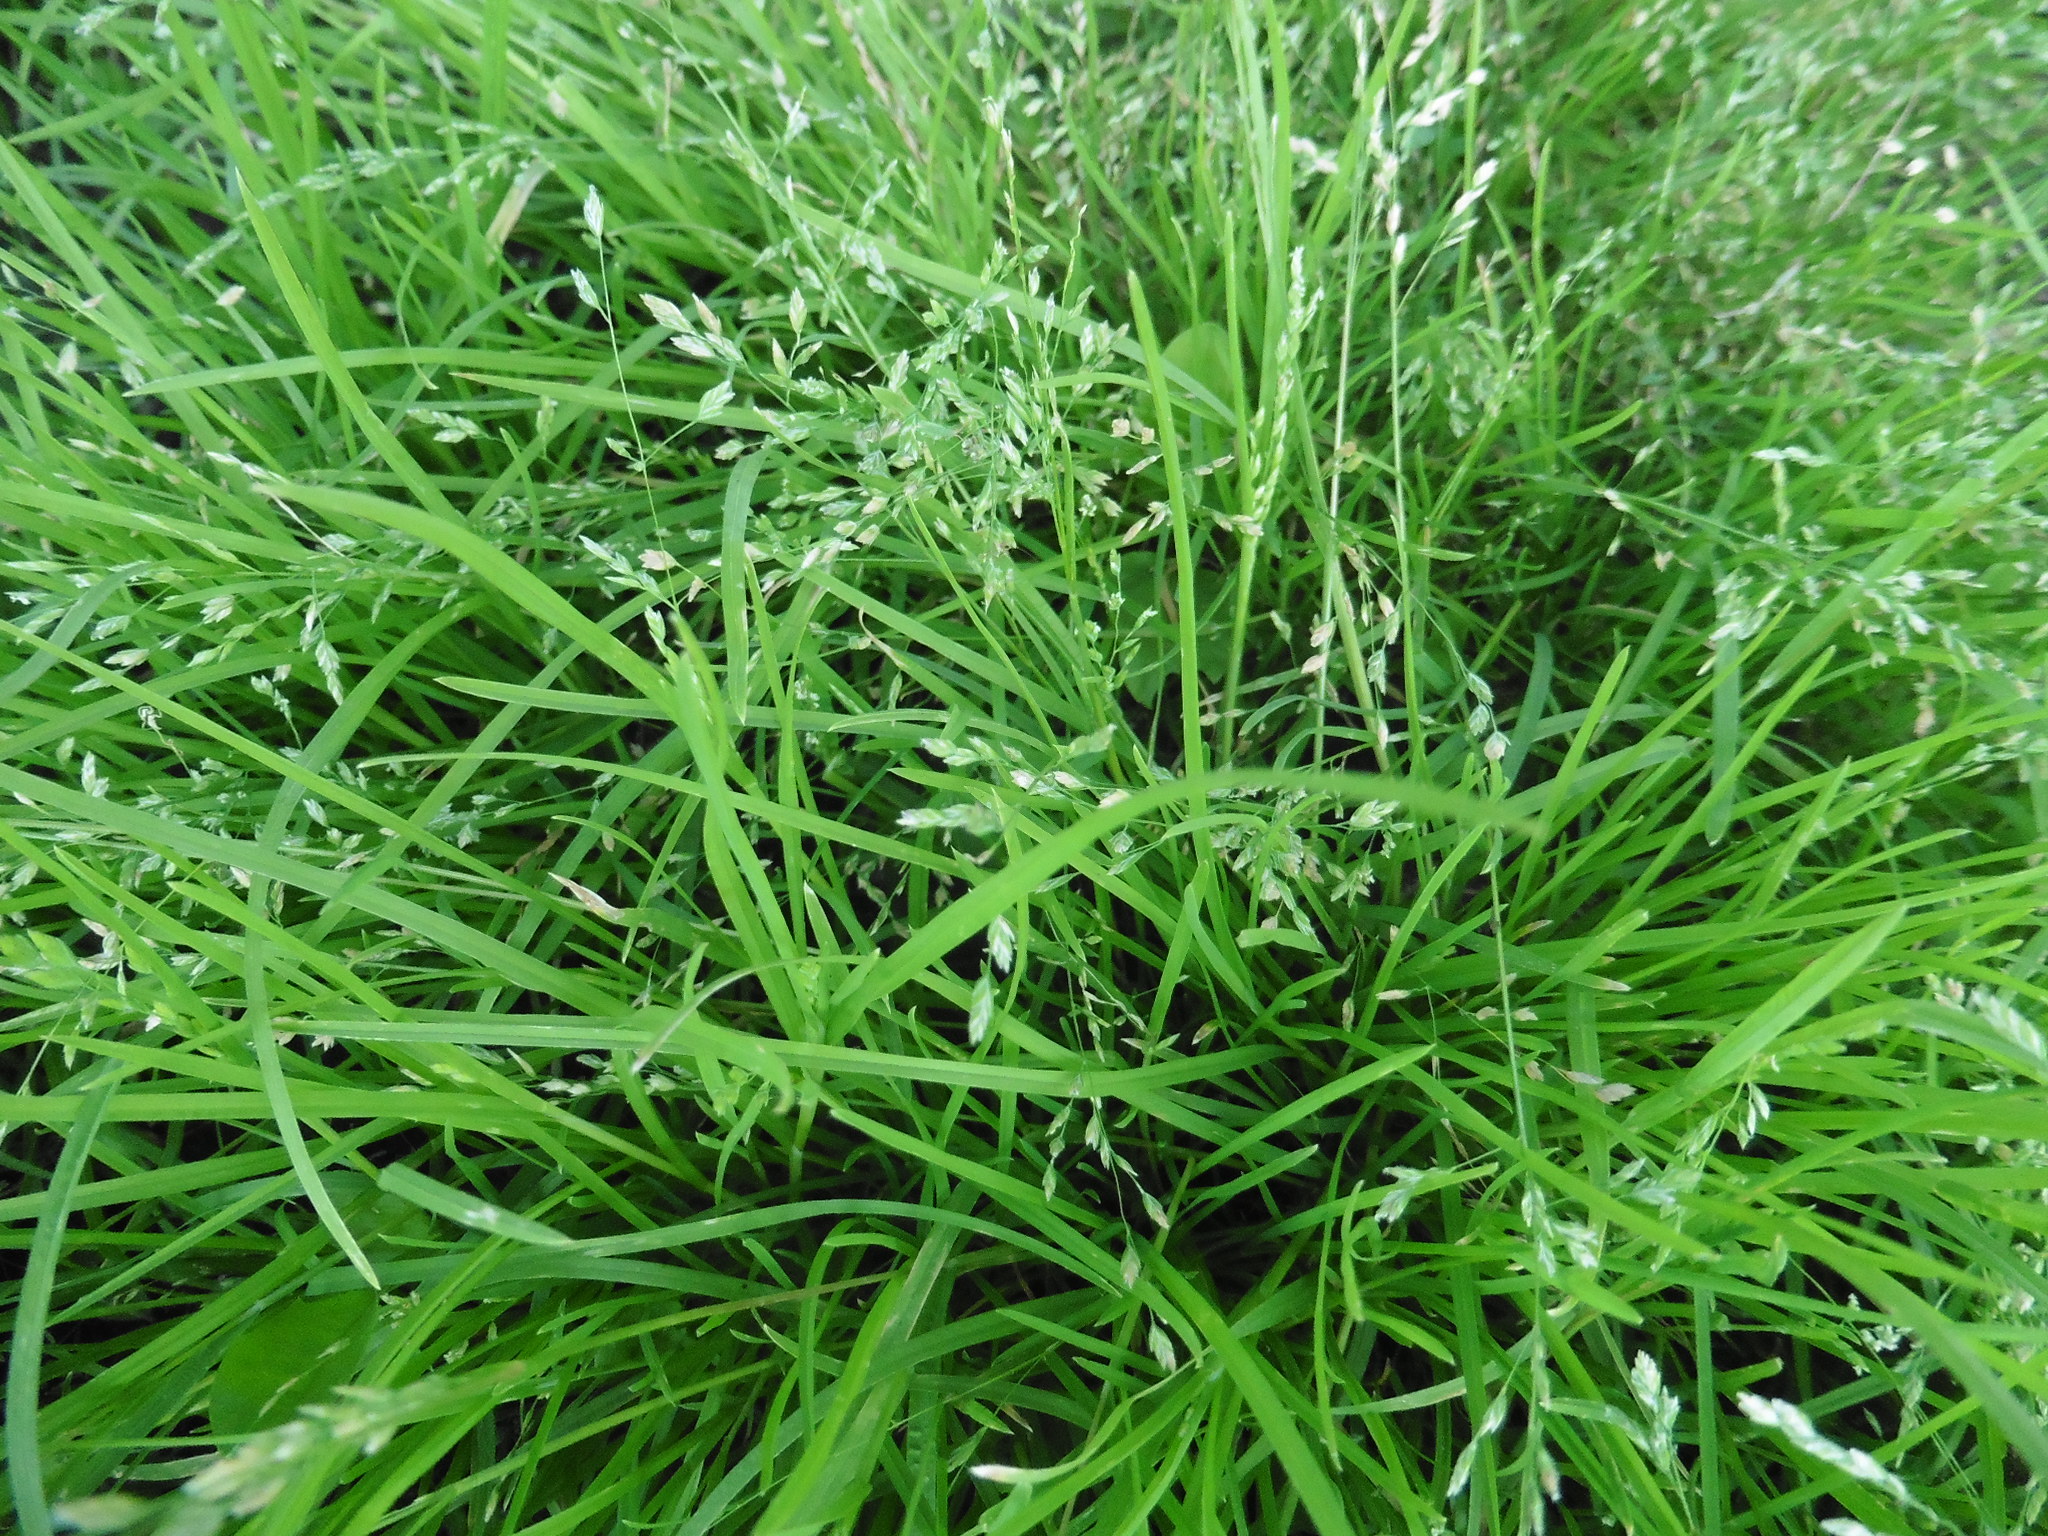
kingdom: Plantae
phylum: Tracheophyta
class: Liliopsida
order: Poales
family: Poaceae
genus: Poa
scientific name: Poa annua
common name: Annual bluegrass
